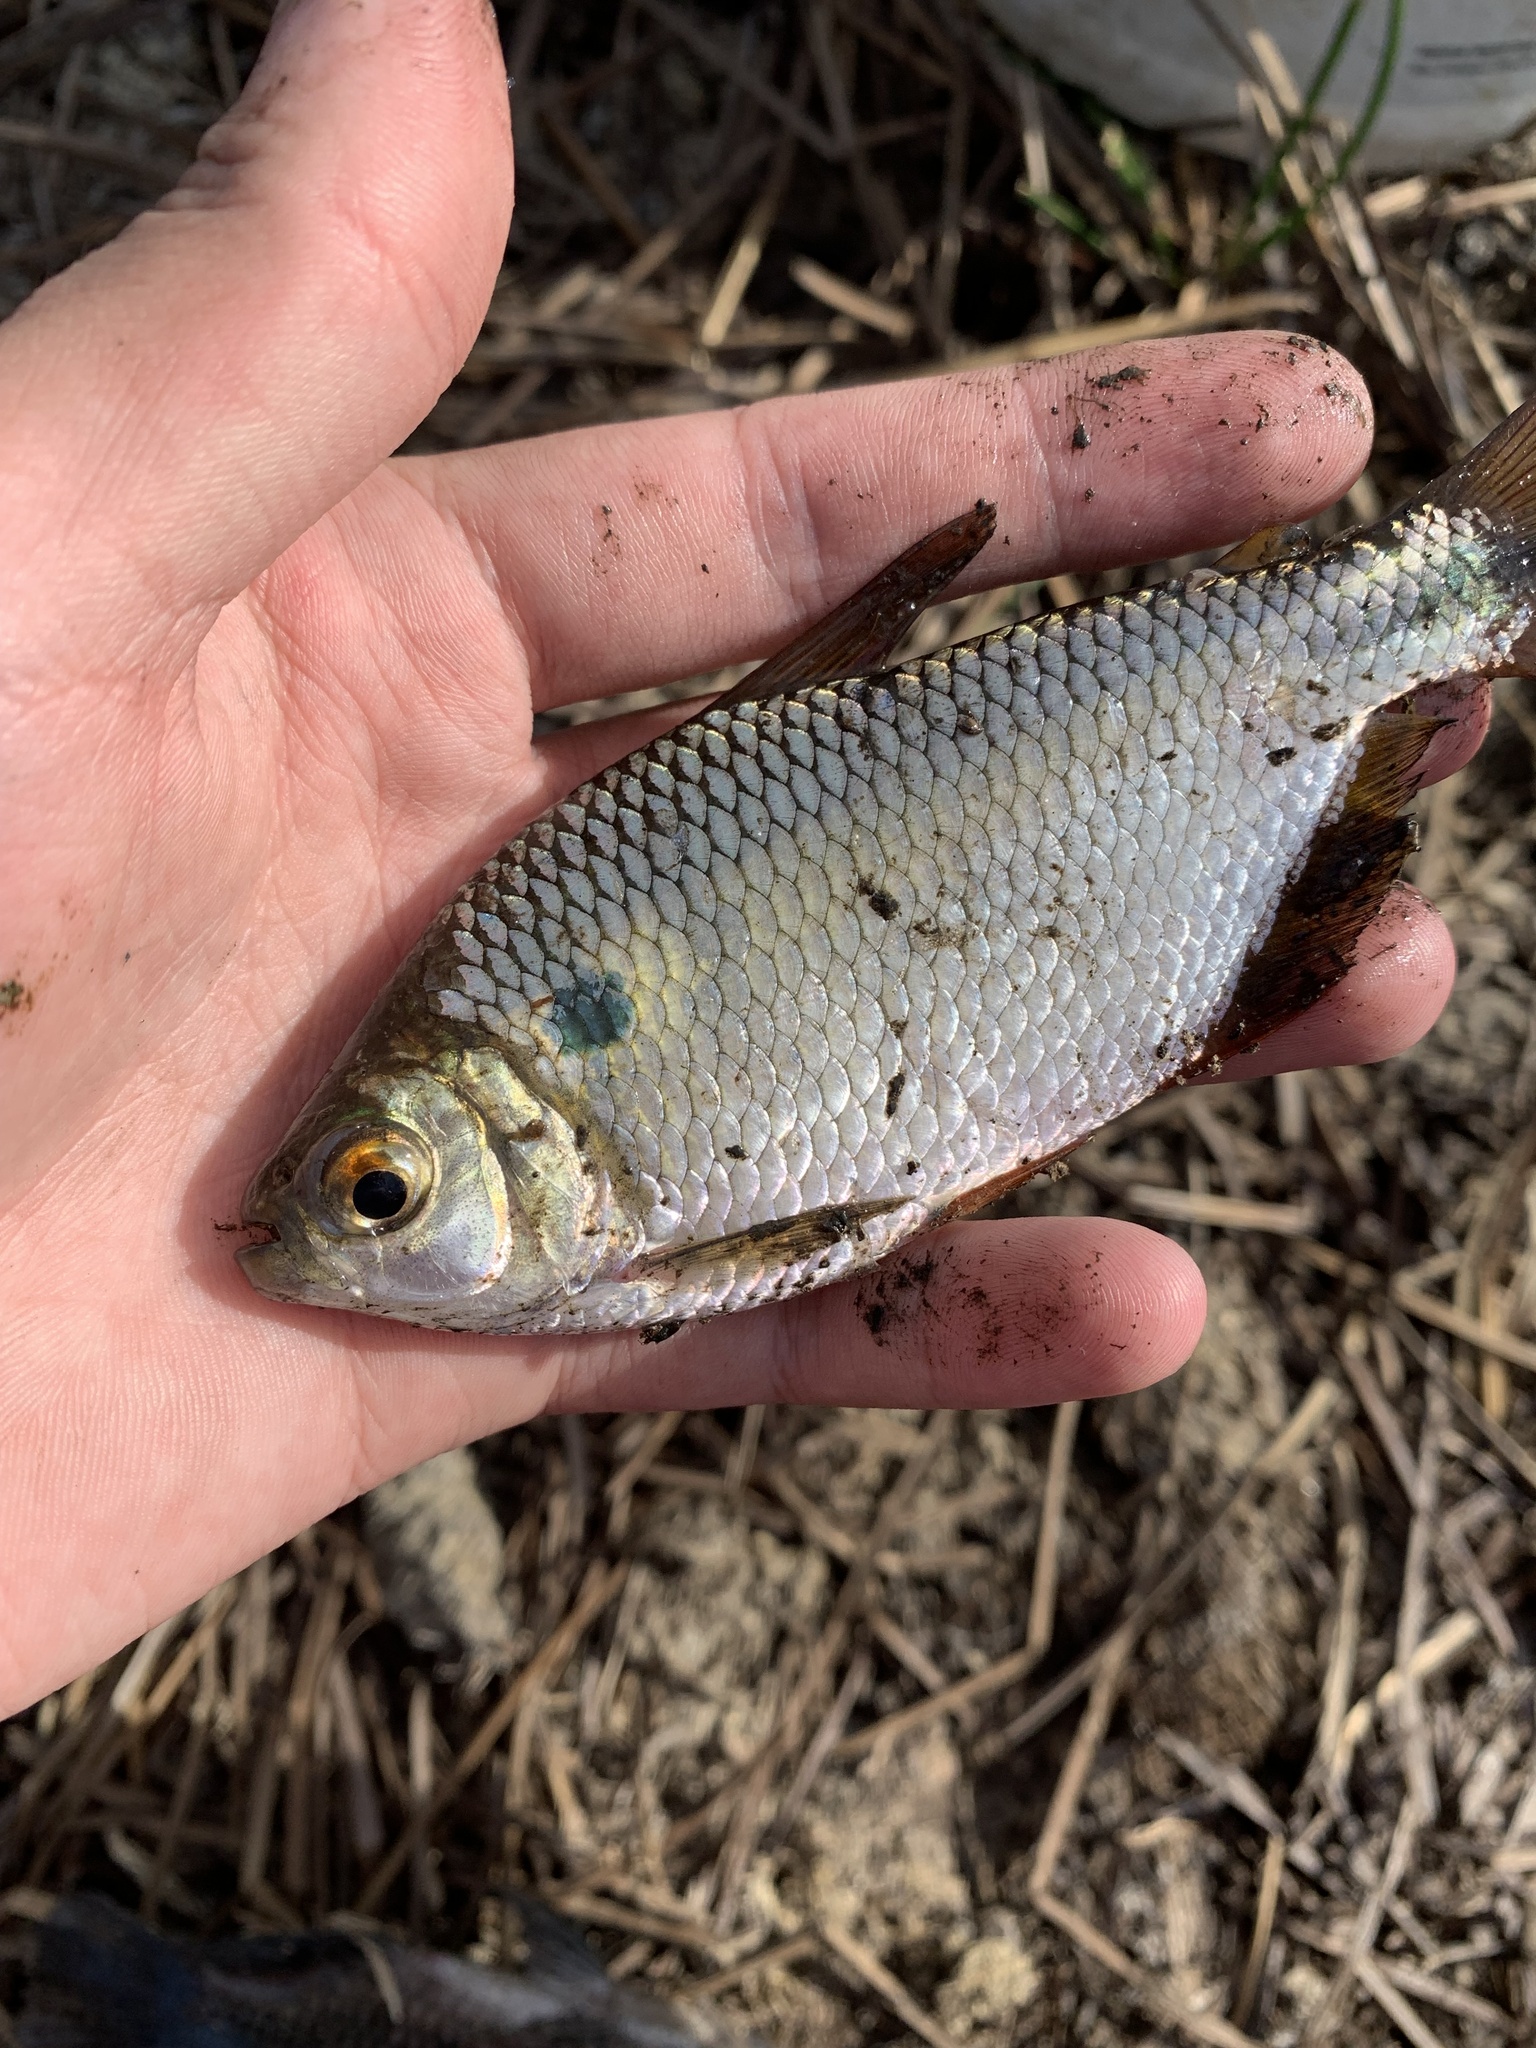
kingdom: Animalia
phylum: Chordata
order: Characiformes
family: Characidae
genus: Astyanax
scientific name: Astyanax lacustris
